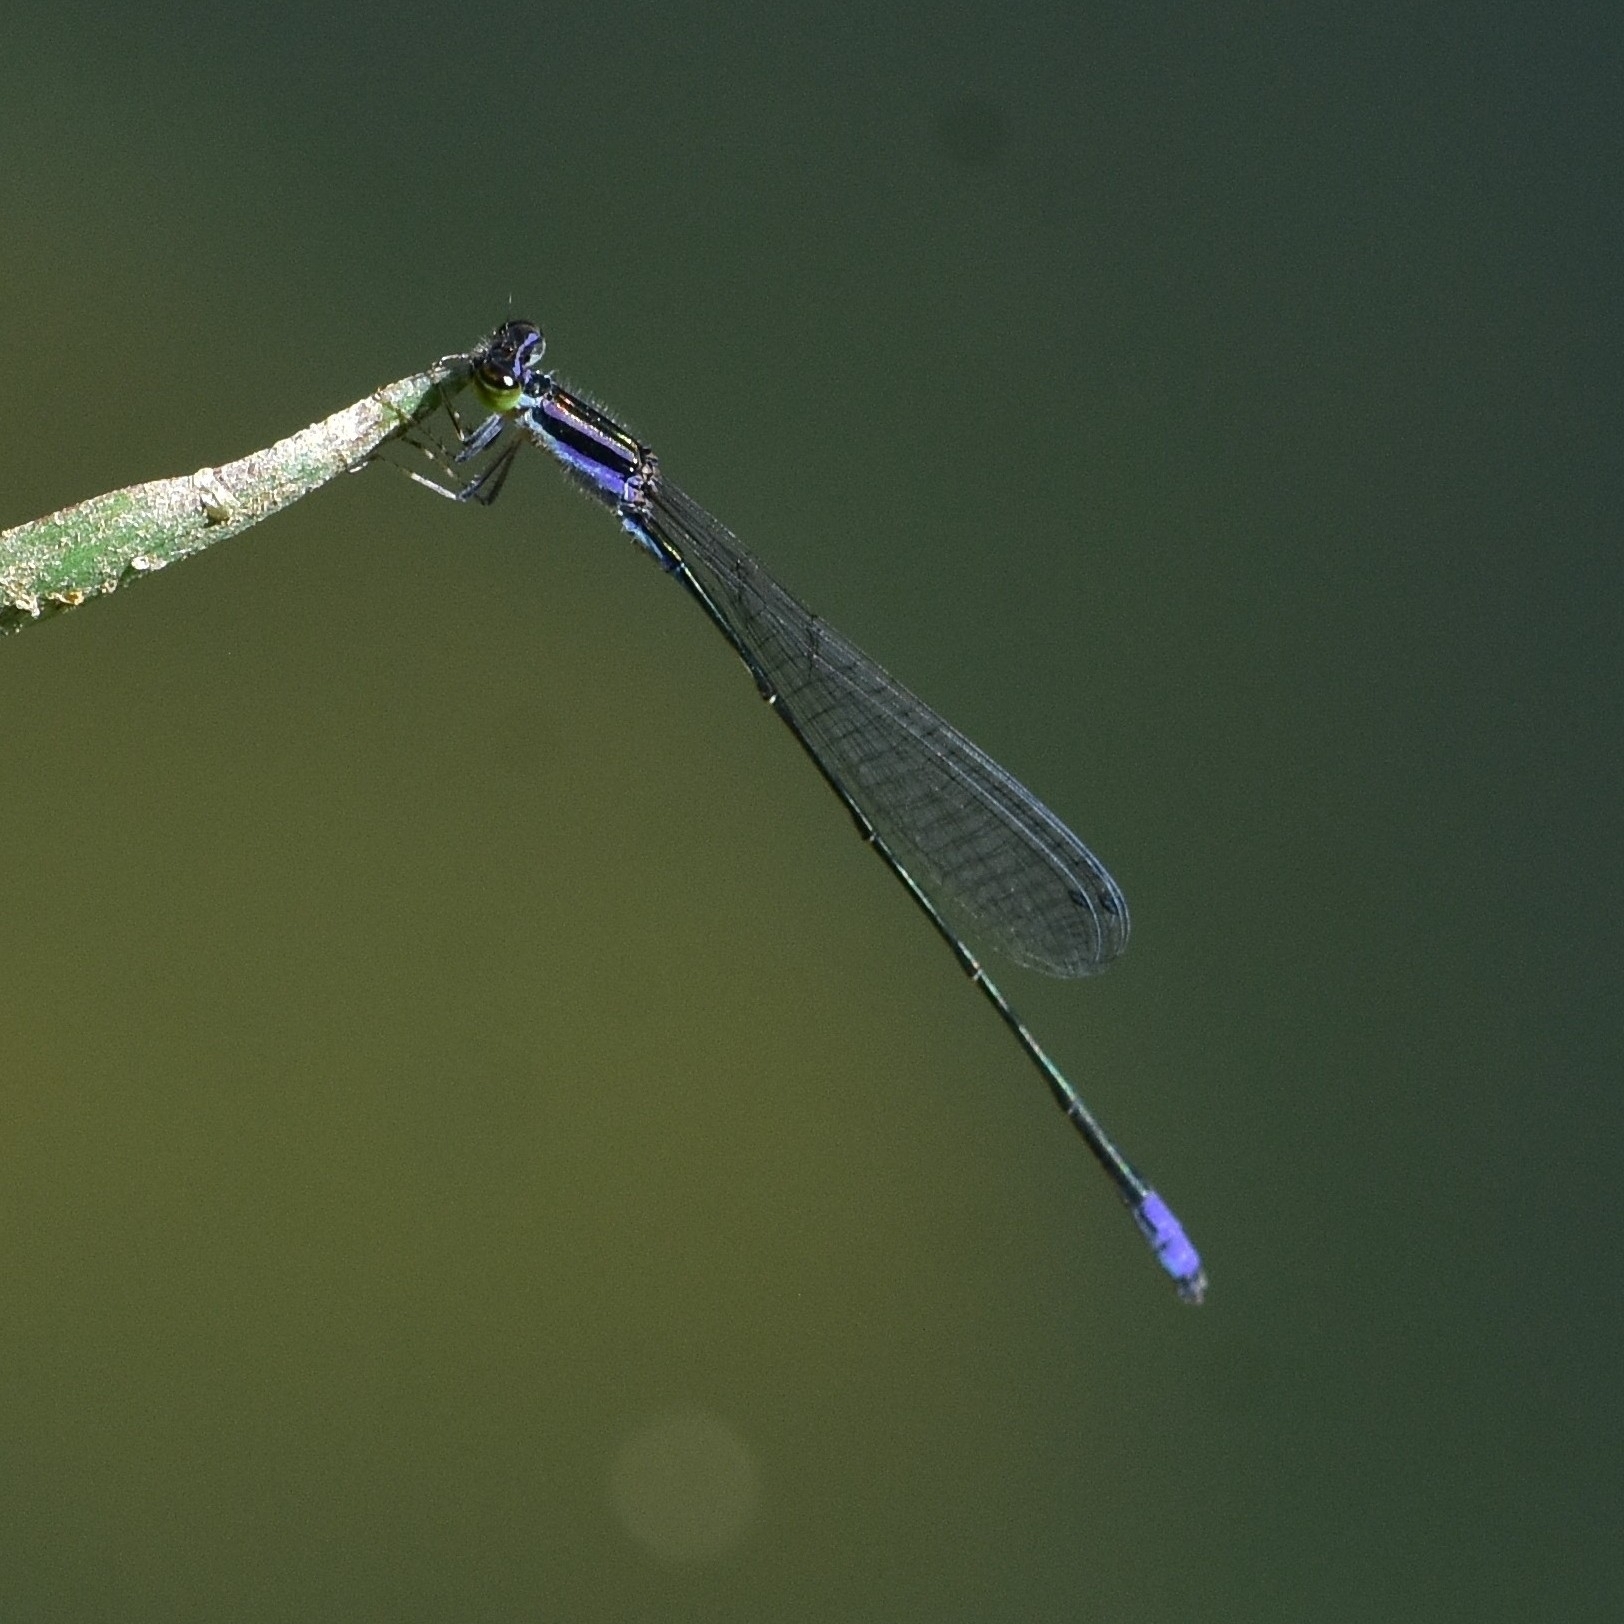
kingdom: Animalia
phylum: Arthropoda
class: Insecta
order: Odonata
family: Coenagrionidae
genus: Aciagrion
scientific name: Aciagrion approximans
